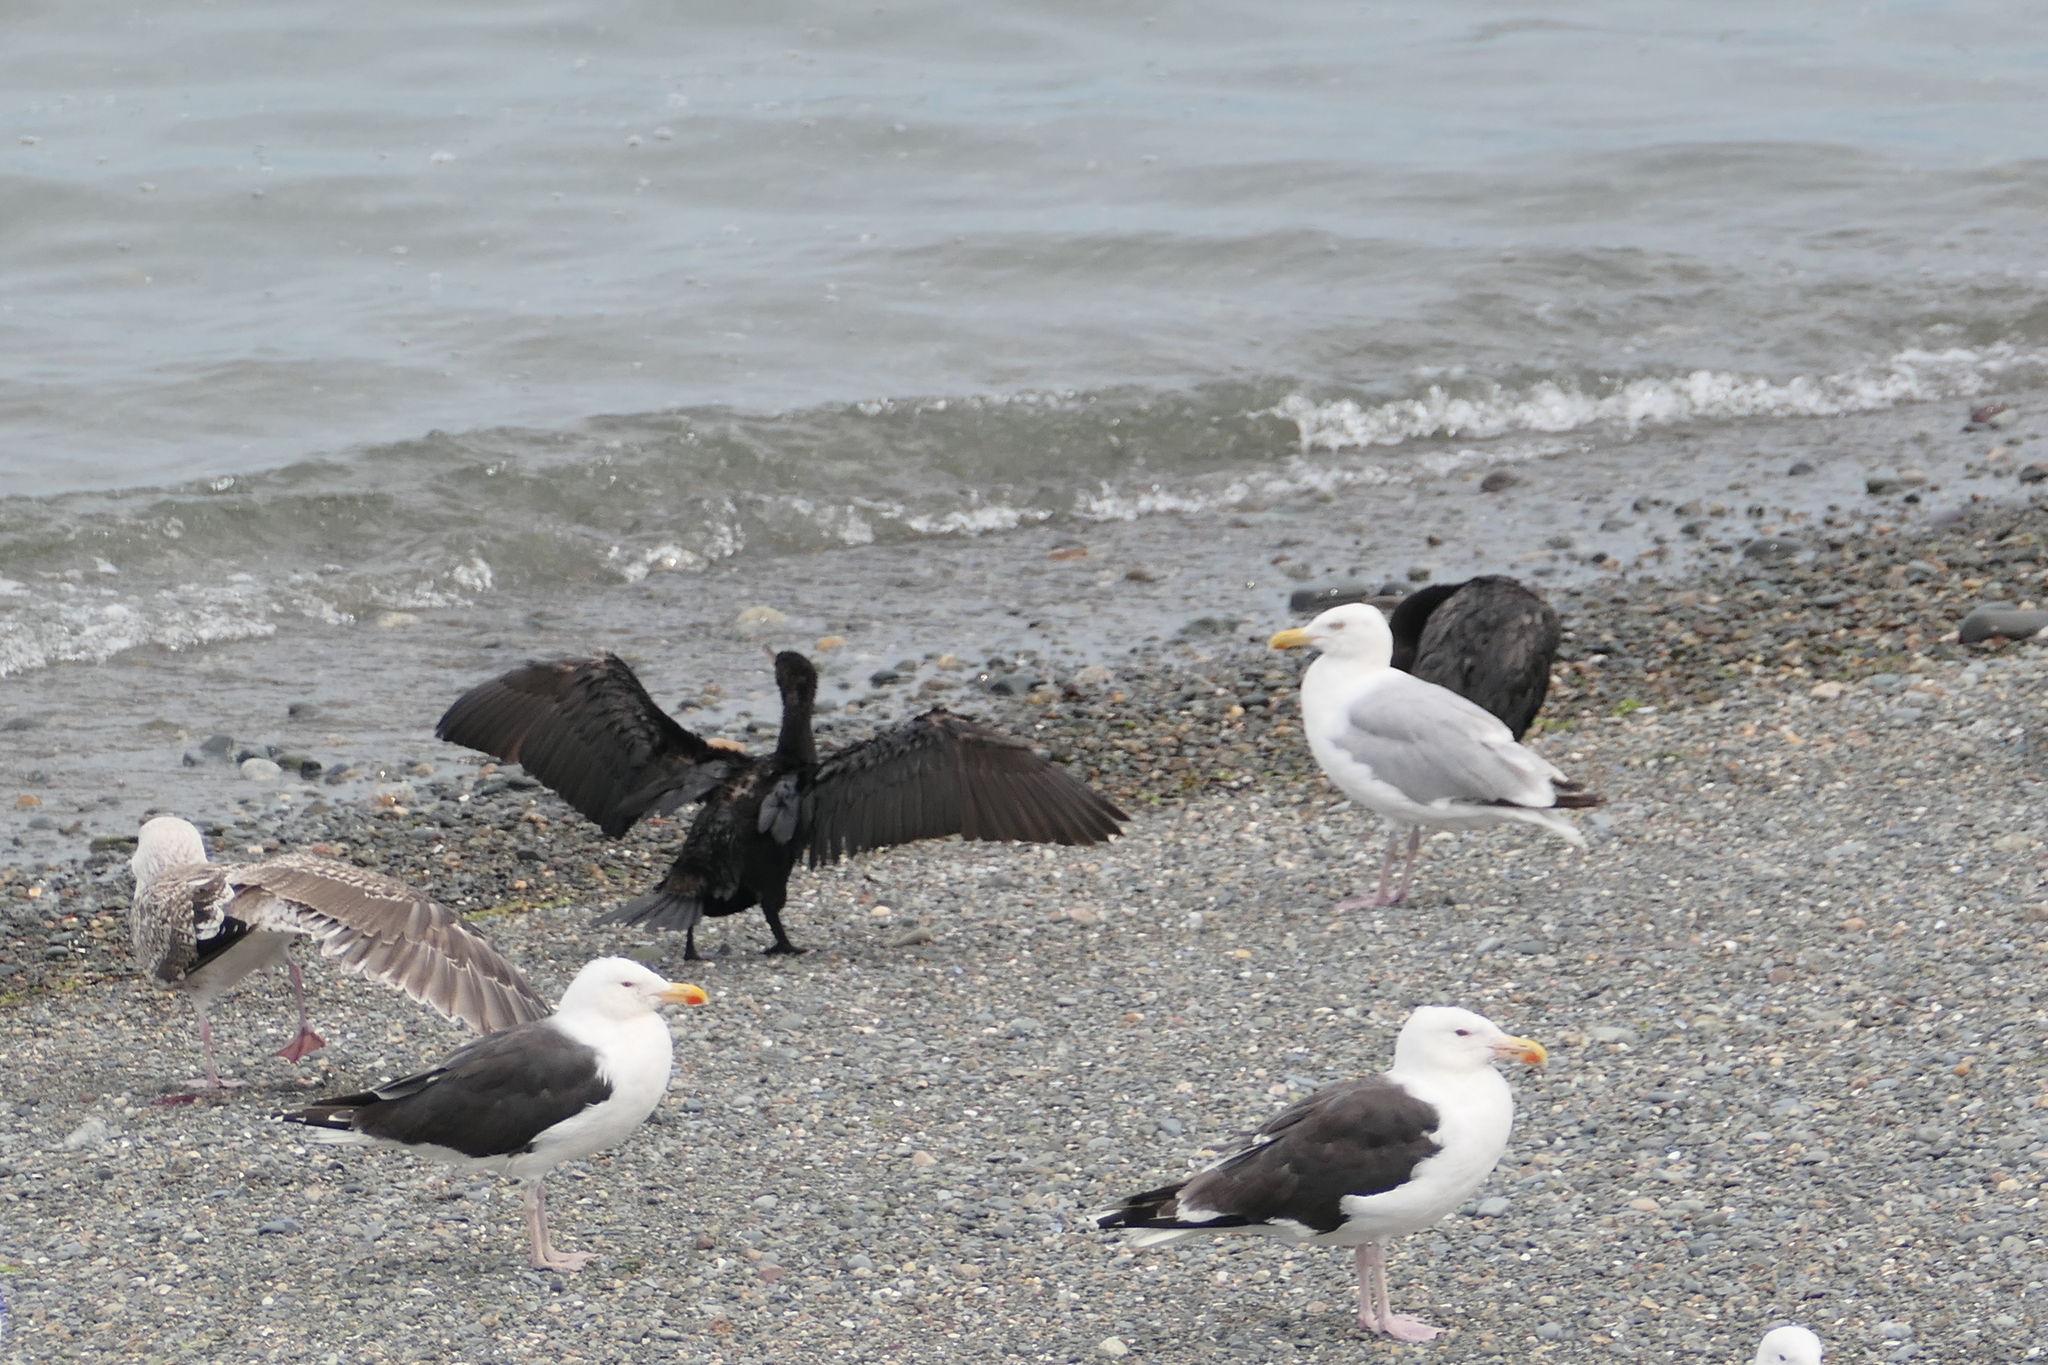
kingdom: Animalia
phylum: Chordata
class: Aves
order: Charadriiformes
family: Laridae
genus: Larus
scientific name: Larus marinus
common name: Great black-backed gull
